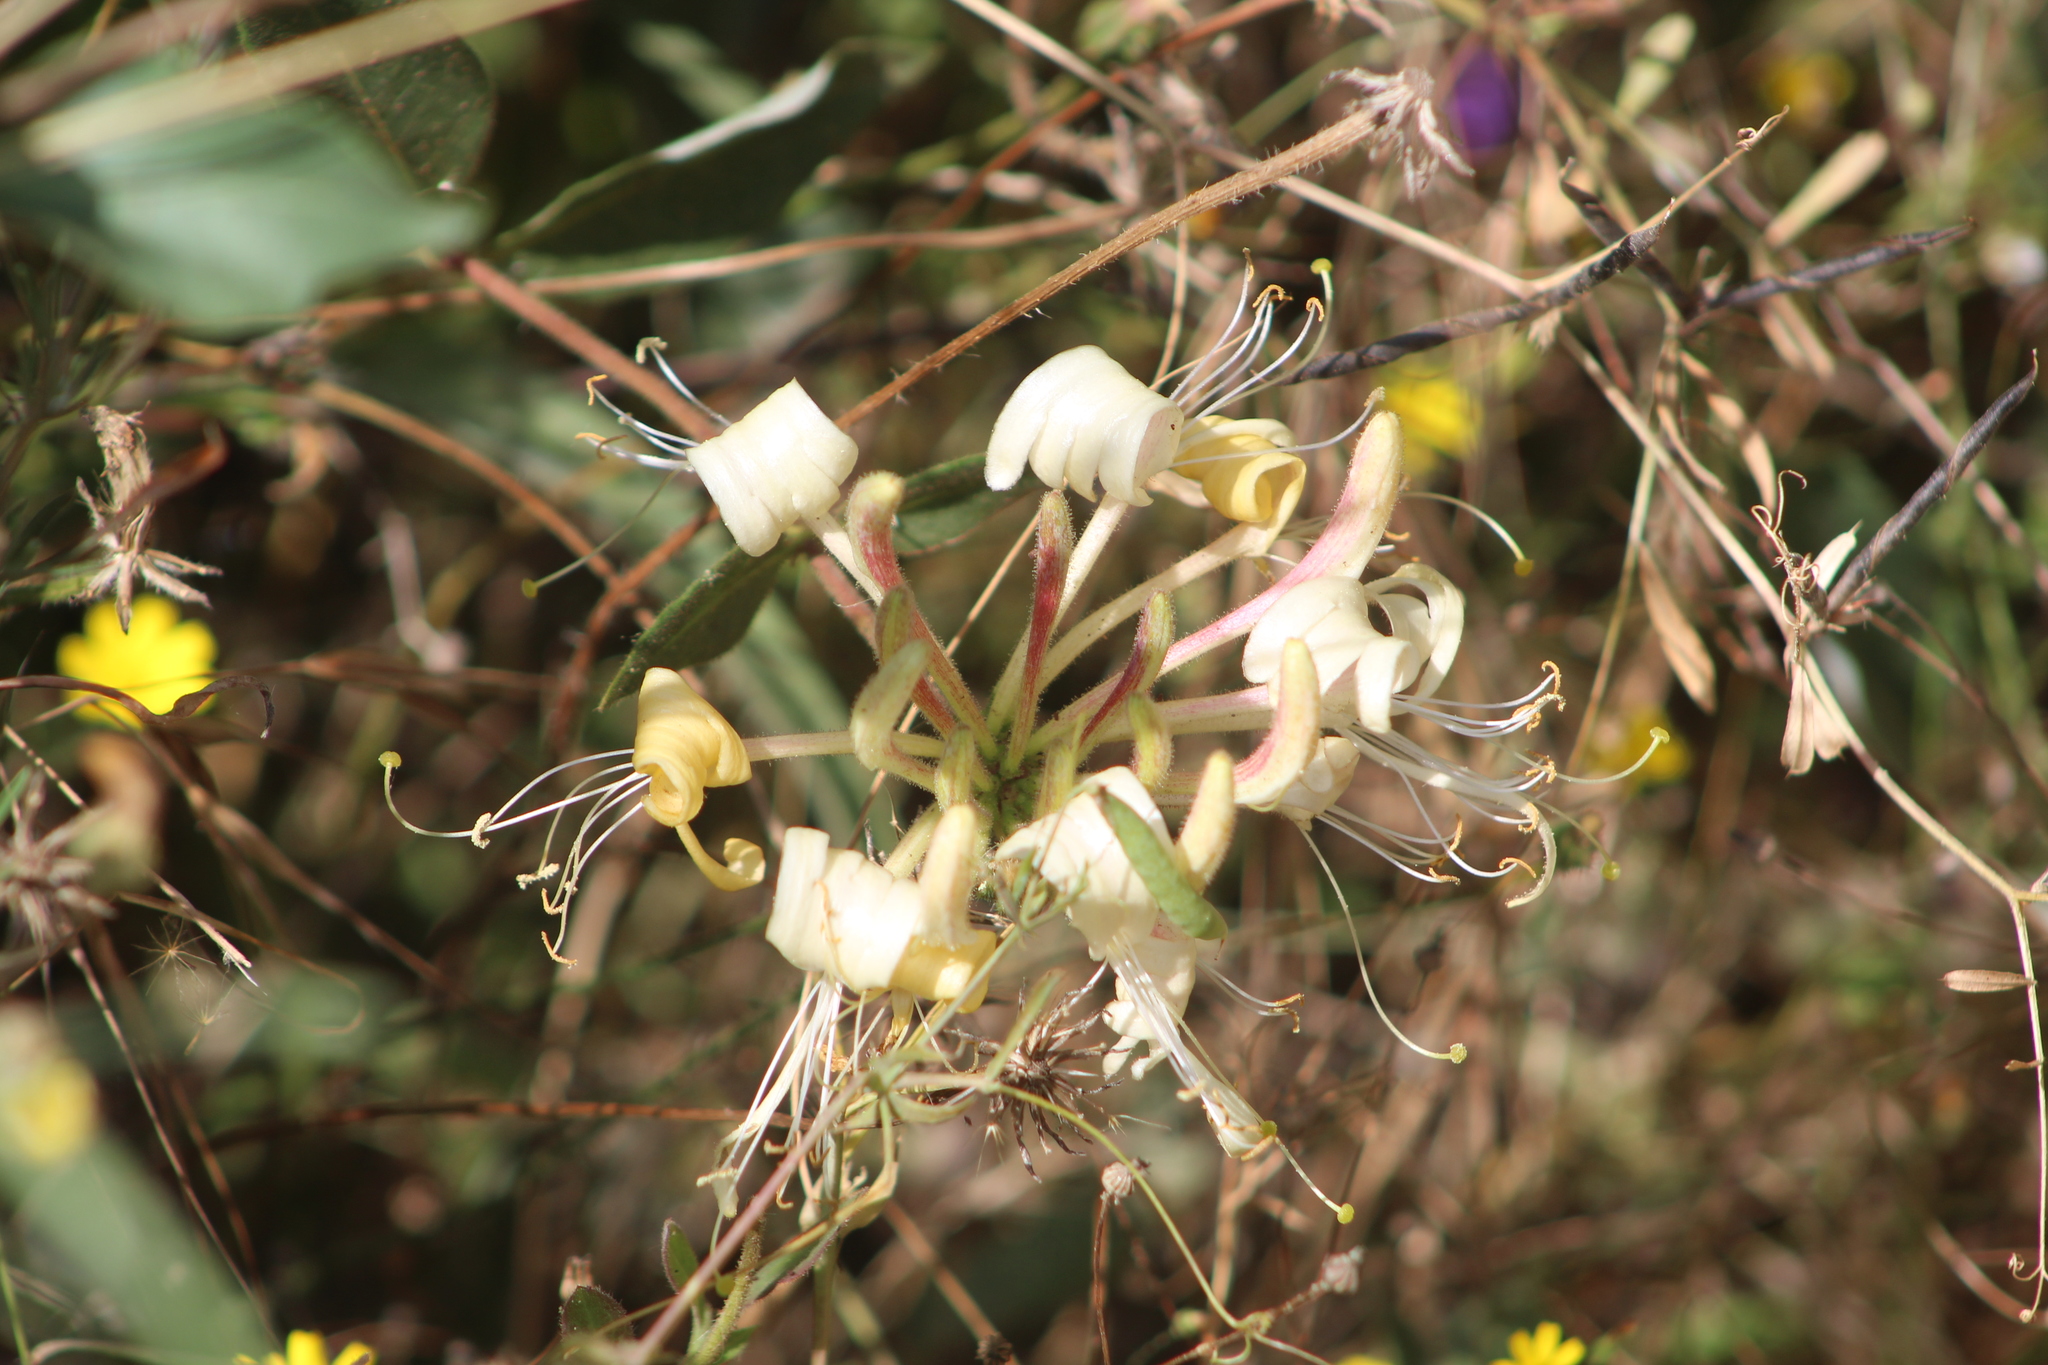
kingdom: Plantae
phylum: Tracheophyta
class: Magnoliopsida
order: Dipsacales
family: Caprifoliaceae
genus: Lonicera
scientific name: Lonicera periclymenum
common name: European honeysuckle
